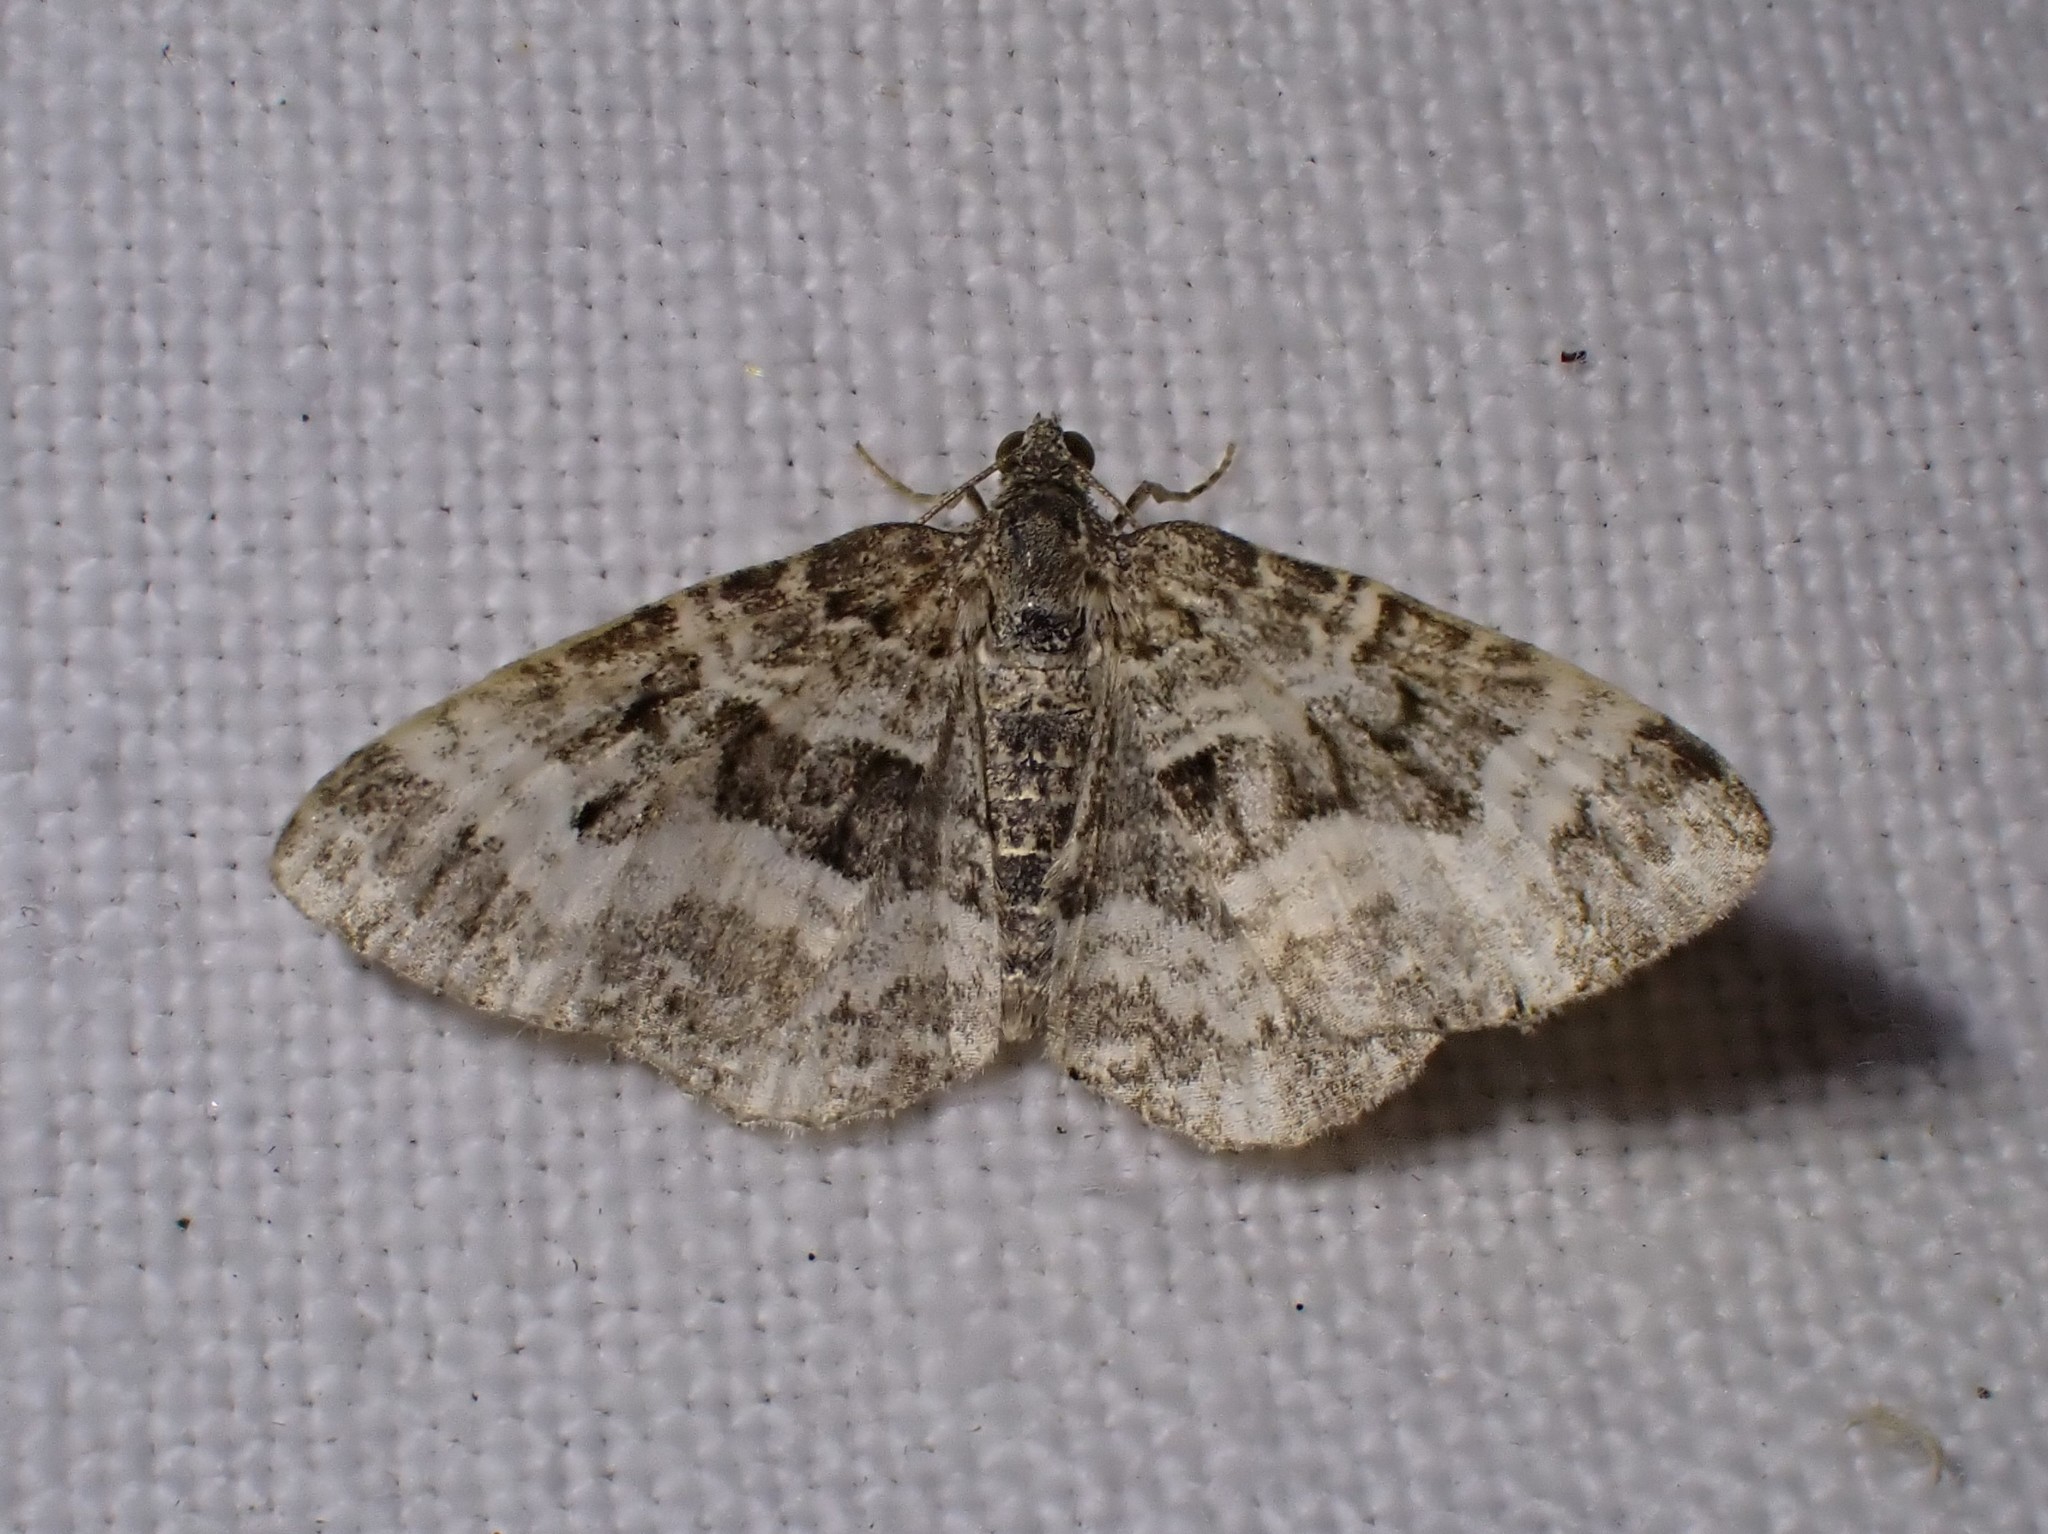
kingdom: Animalia
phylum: Arthropoda
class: Insecta
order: Lepidoptera
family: Geometridae
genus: Epirrhoe
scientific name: Epirrhoe alternata
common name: Common carpet
